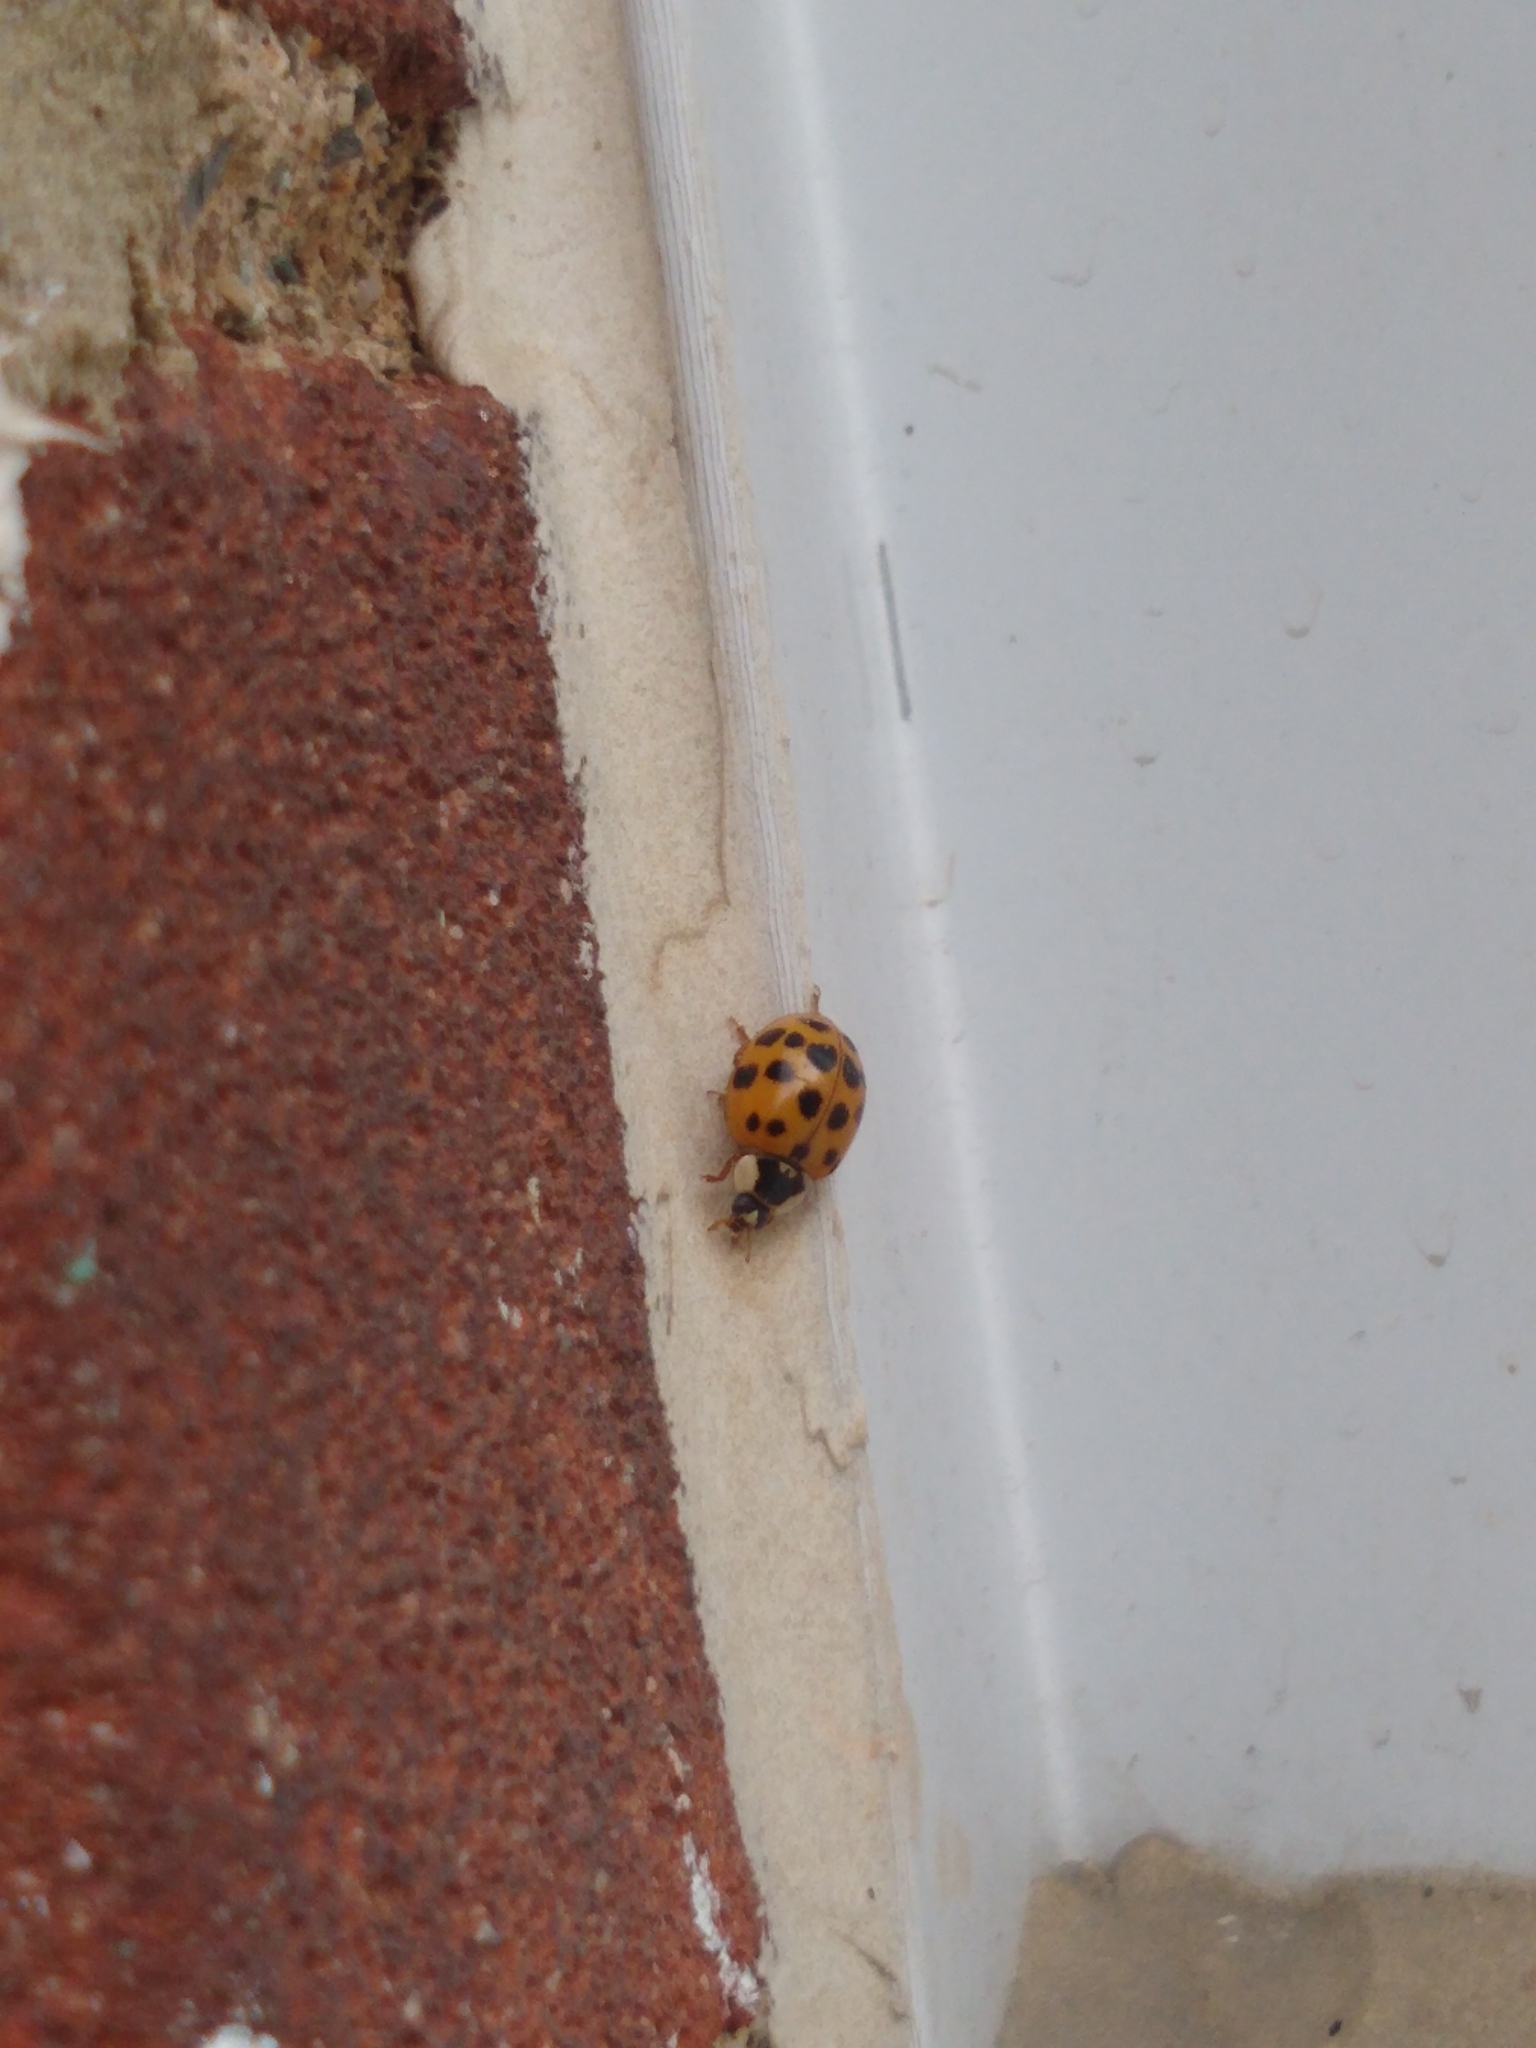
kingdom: Animalia
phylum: Arthropoda
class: Insecta
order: Coleoptera
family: Coccinellidae
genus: Harmonia
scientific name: Harmonia axyridis
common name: Harlequin ladybird
